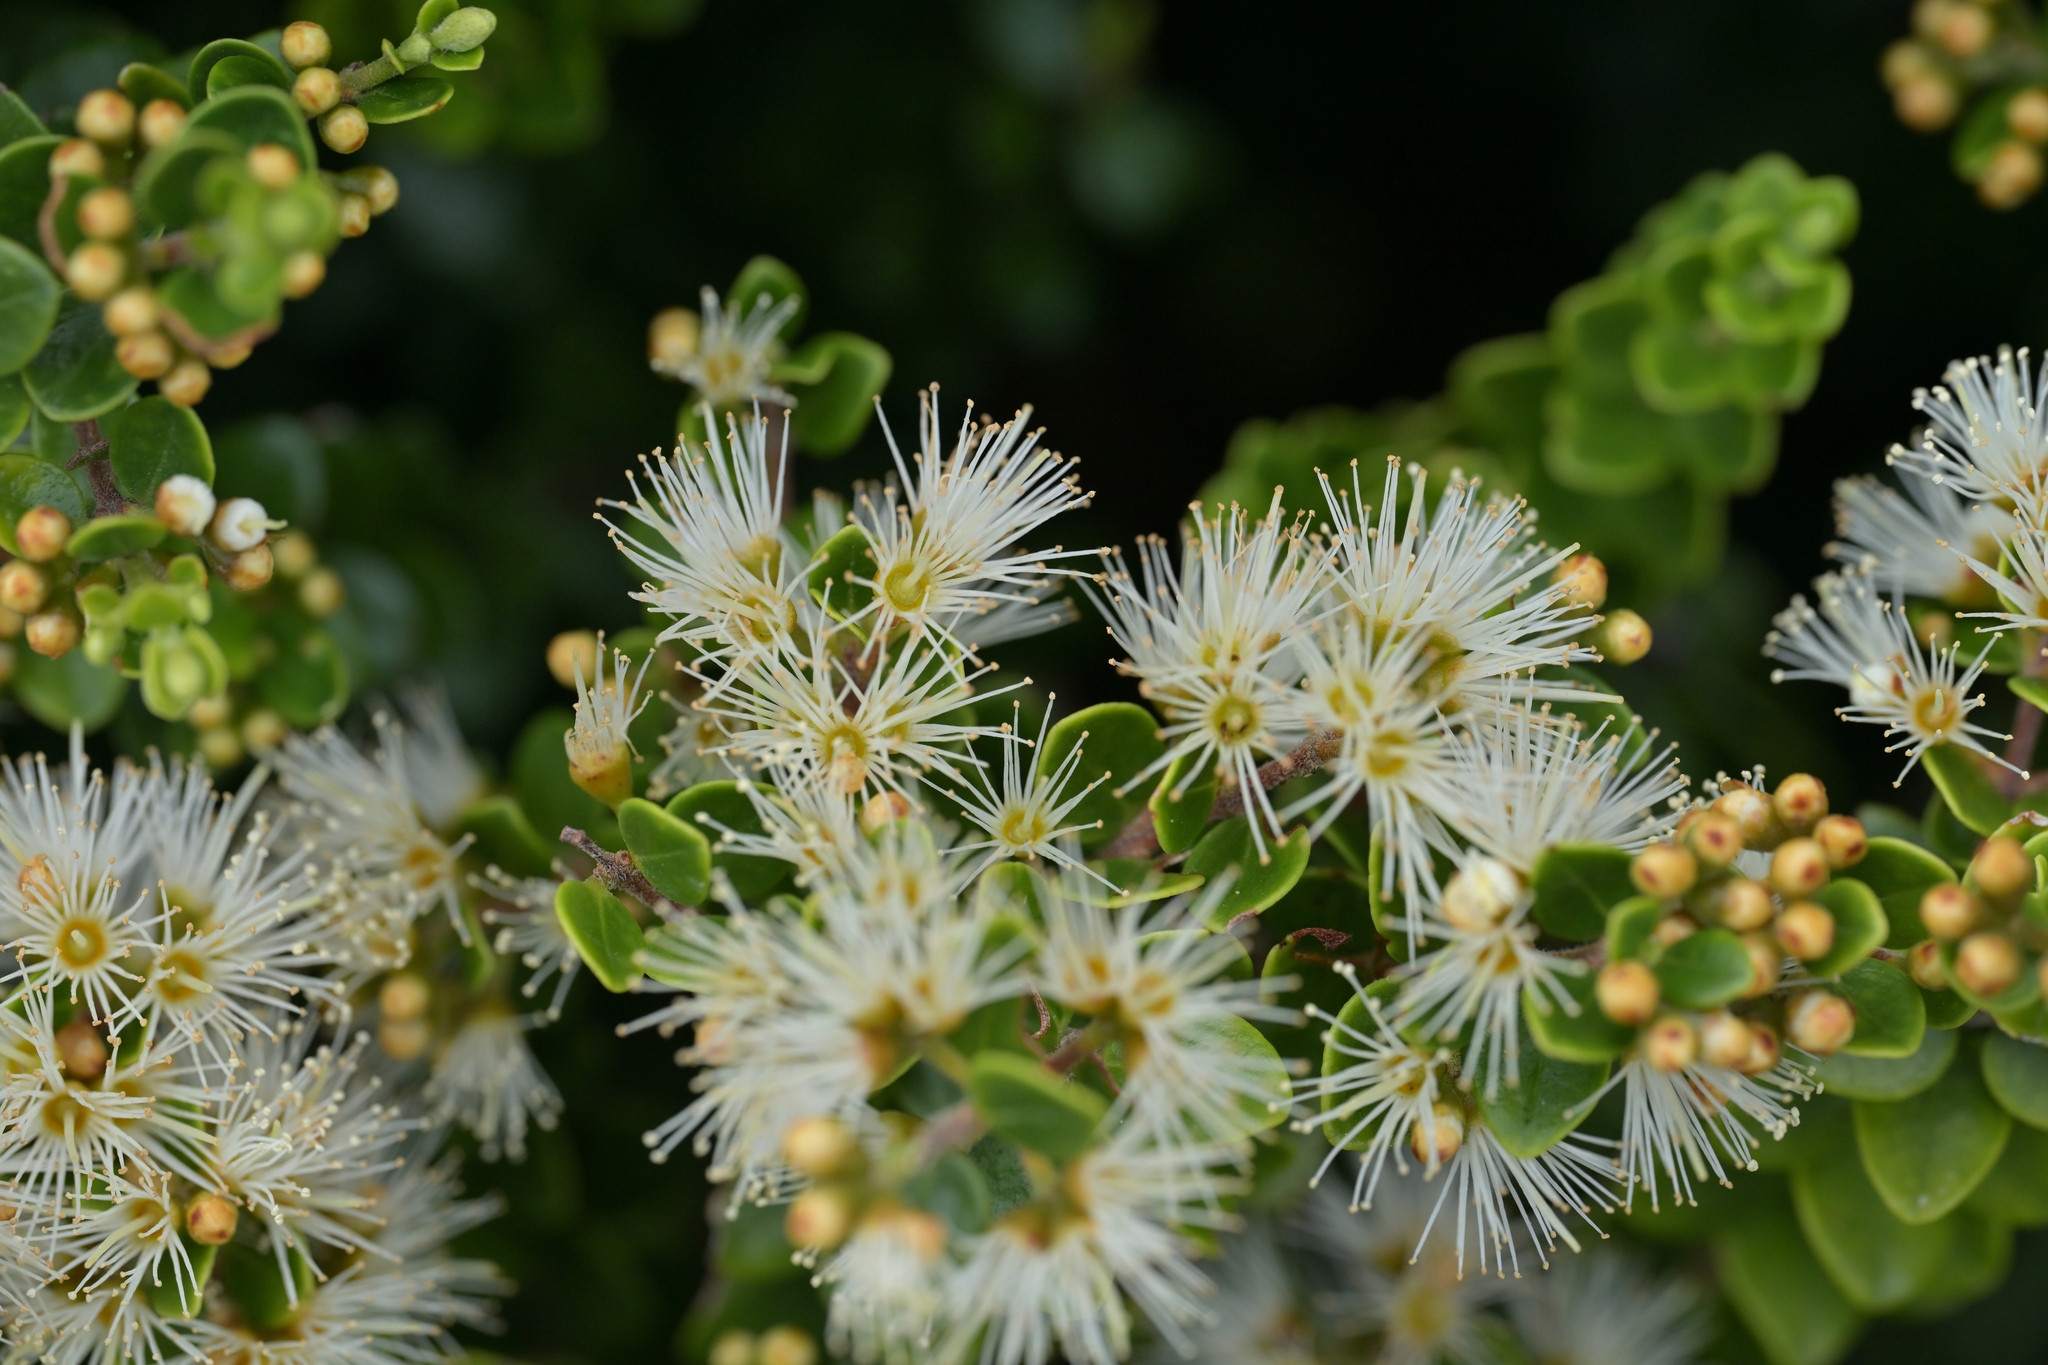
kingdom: Plantae
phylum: Tracheophyta
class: Magnoliopsida
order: Myrtales
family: Myrtaceae
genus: Metrosideros
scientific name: Metrosideros perforata
